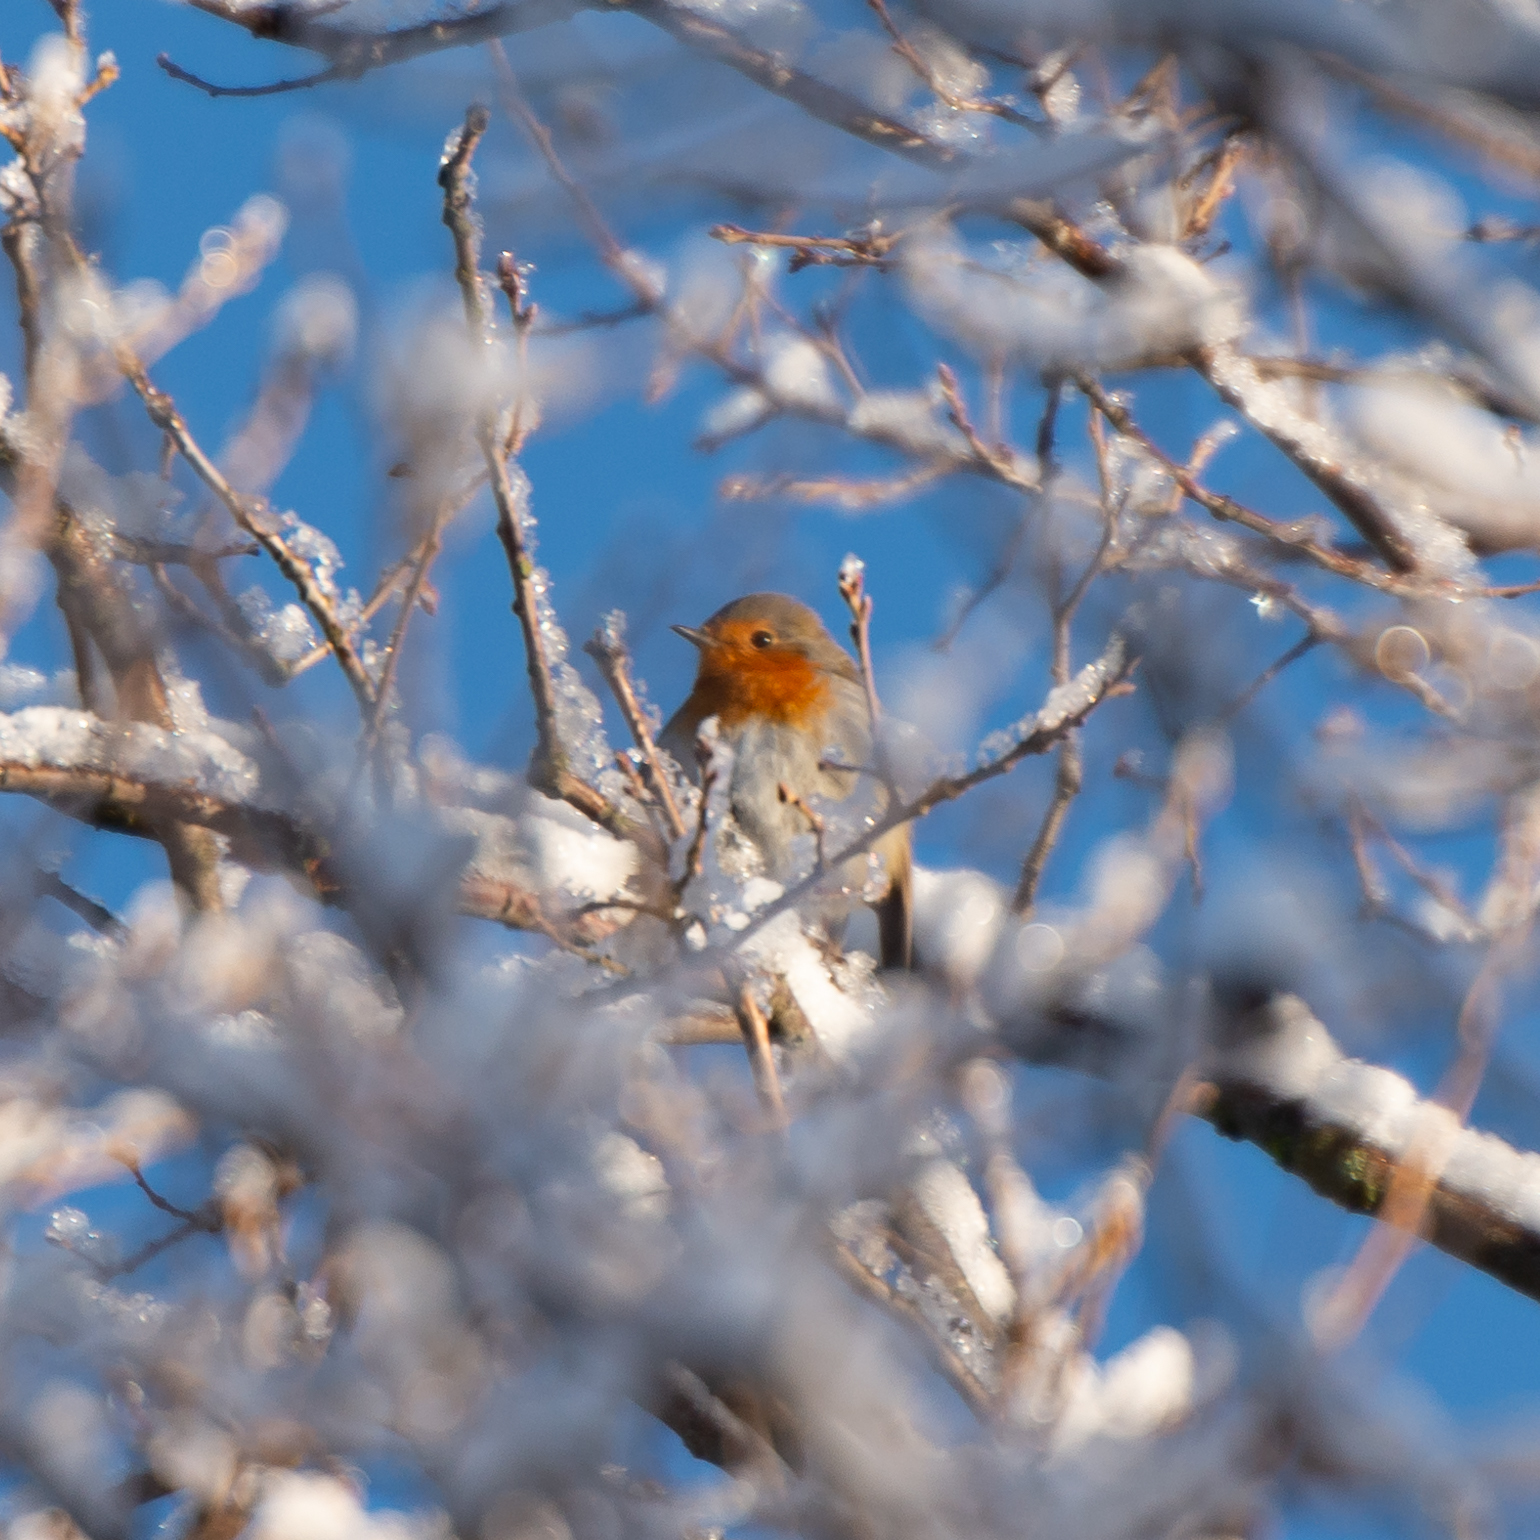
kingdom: Animalia
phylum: Chordata
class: Aves
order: Passeriformes
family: Muscicapidae
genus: Erithacus
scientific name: Erithacus rubecula
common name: European robin
